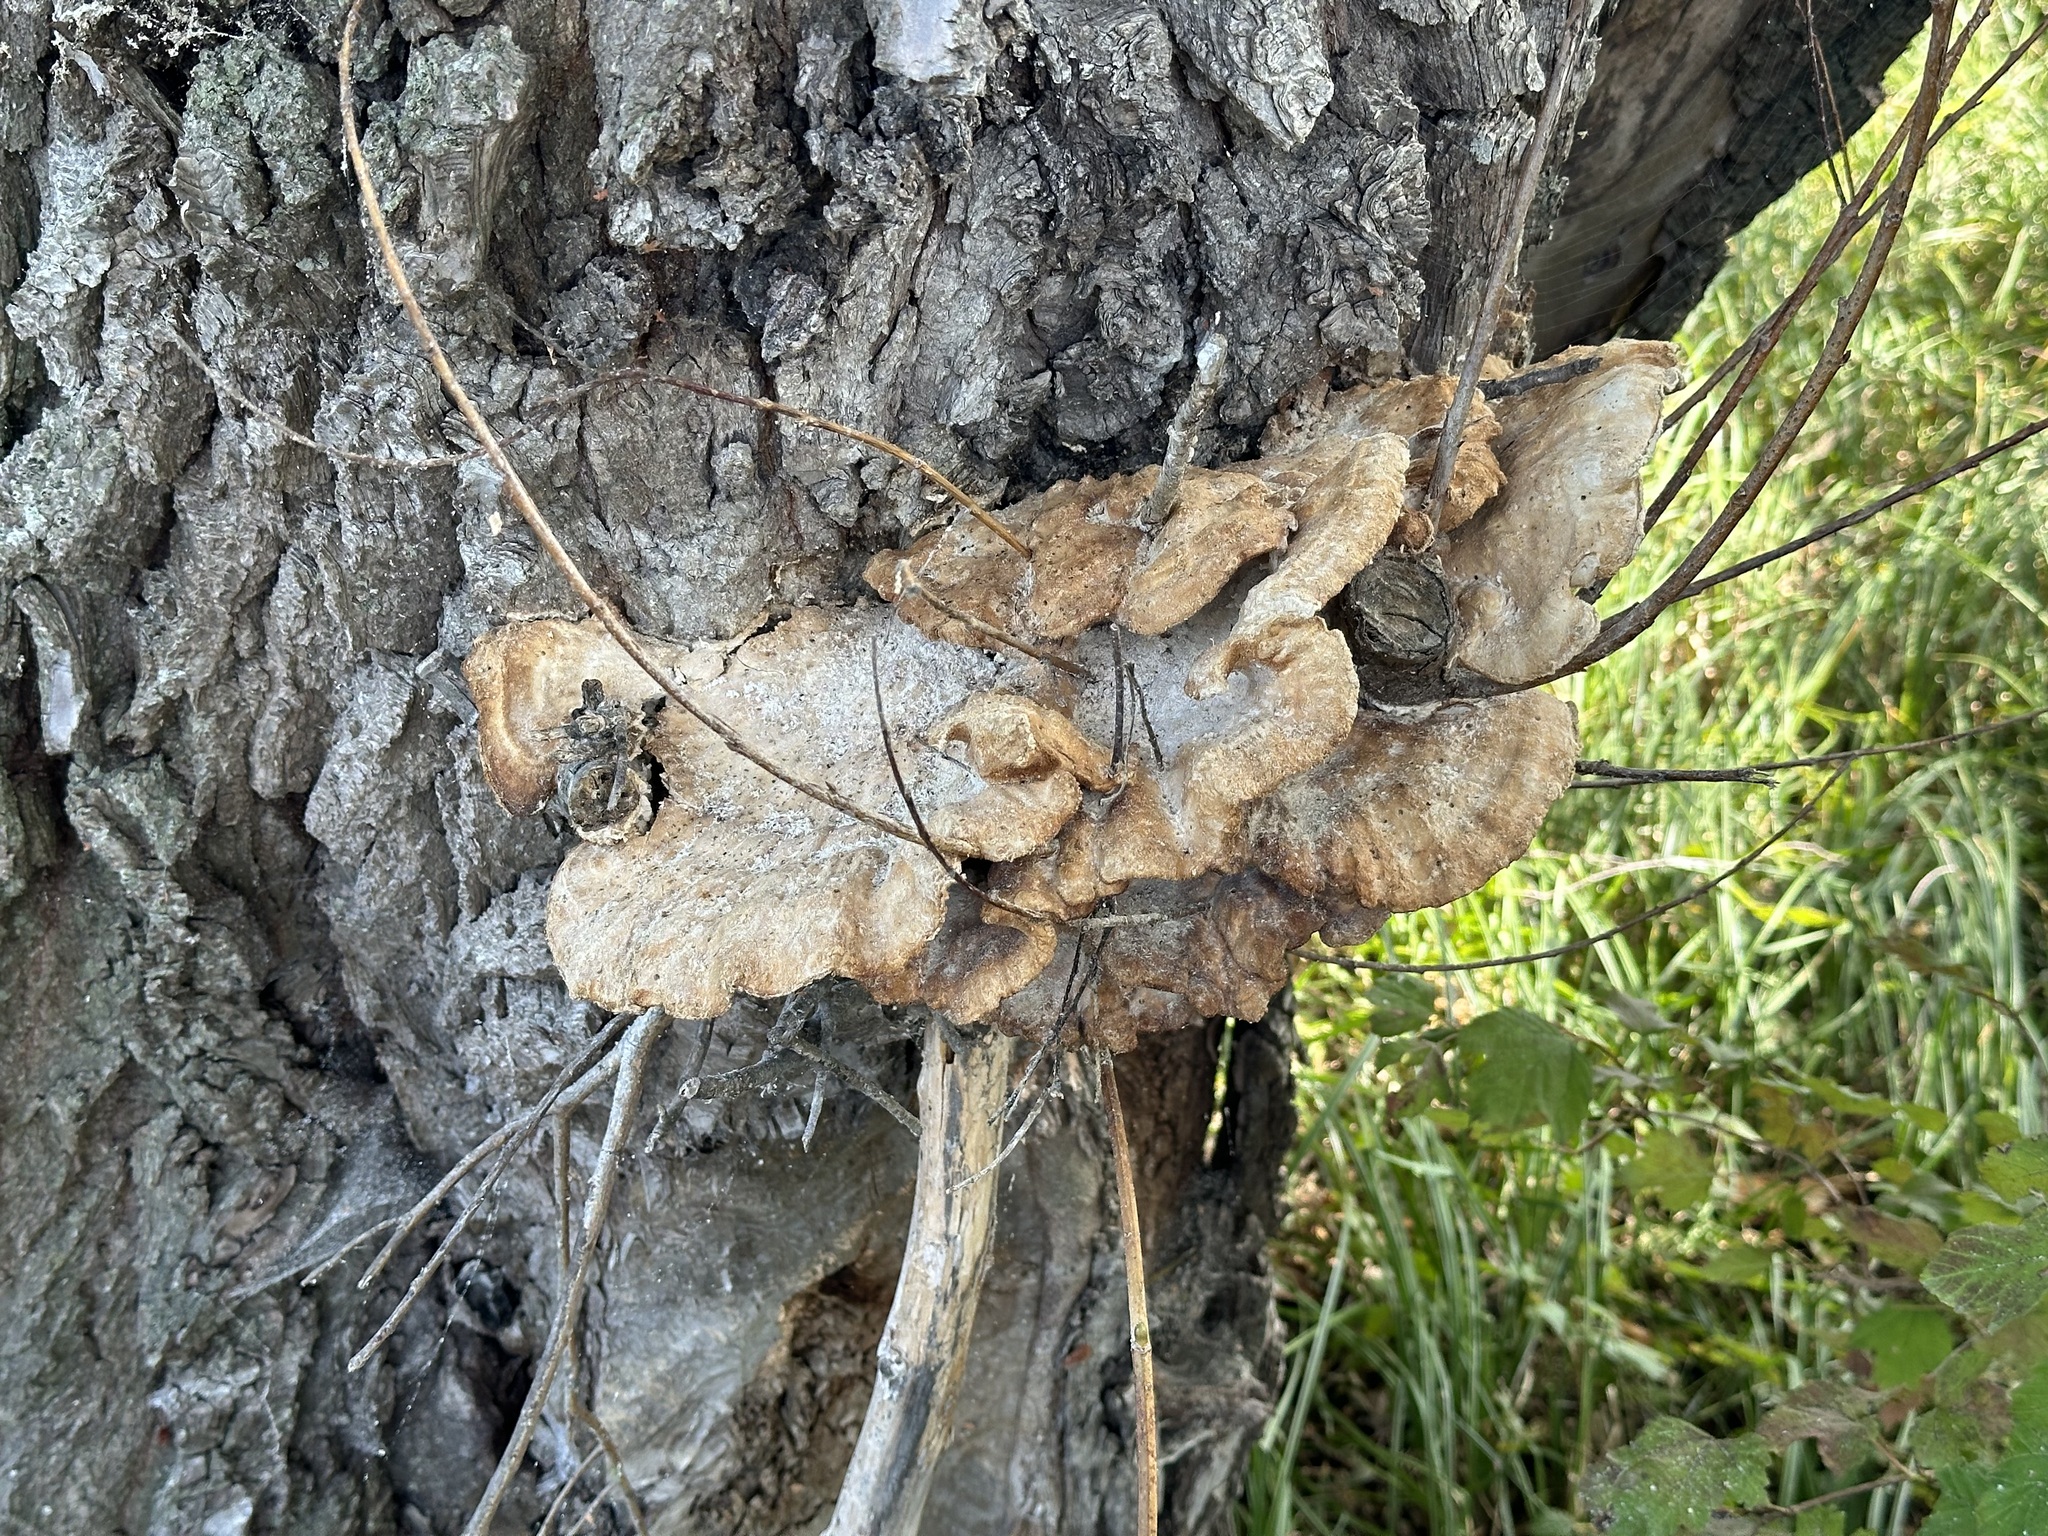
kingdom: Fungi
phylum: Basidiomycota
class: Agaricomycetes
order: Polyporales
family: Laetiporaceae
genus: Laetiporus
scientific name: Laetiporus sulphureus
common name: Chicken of the woods
